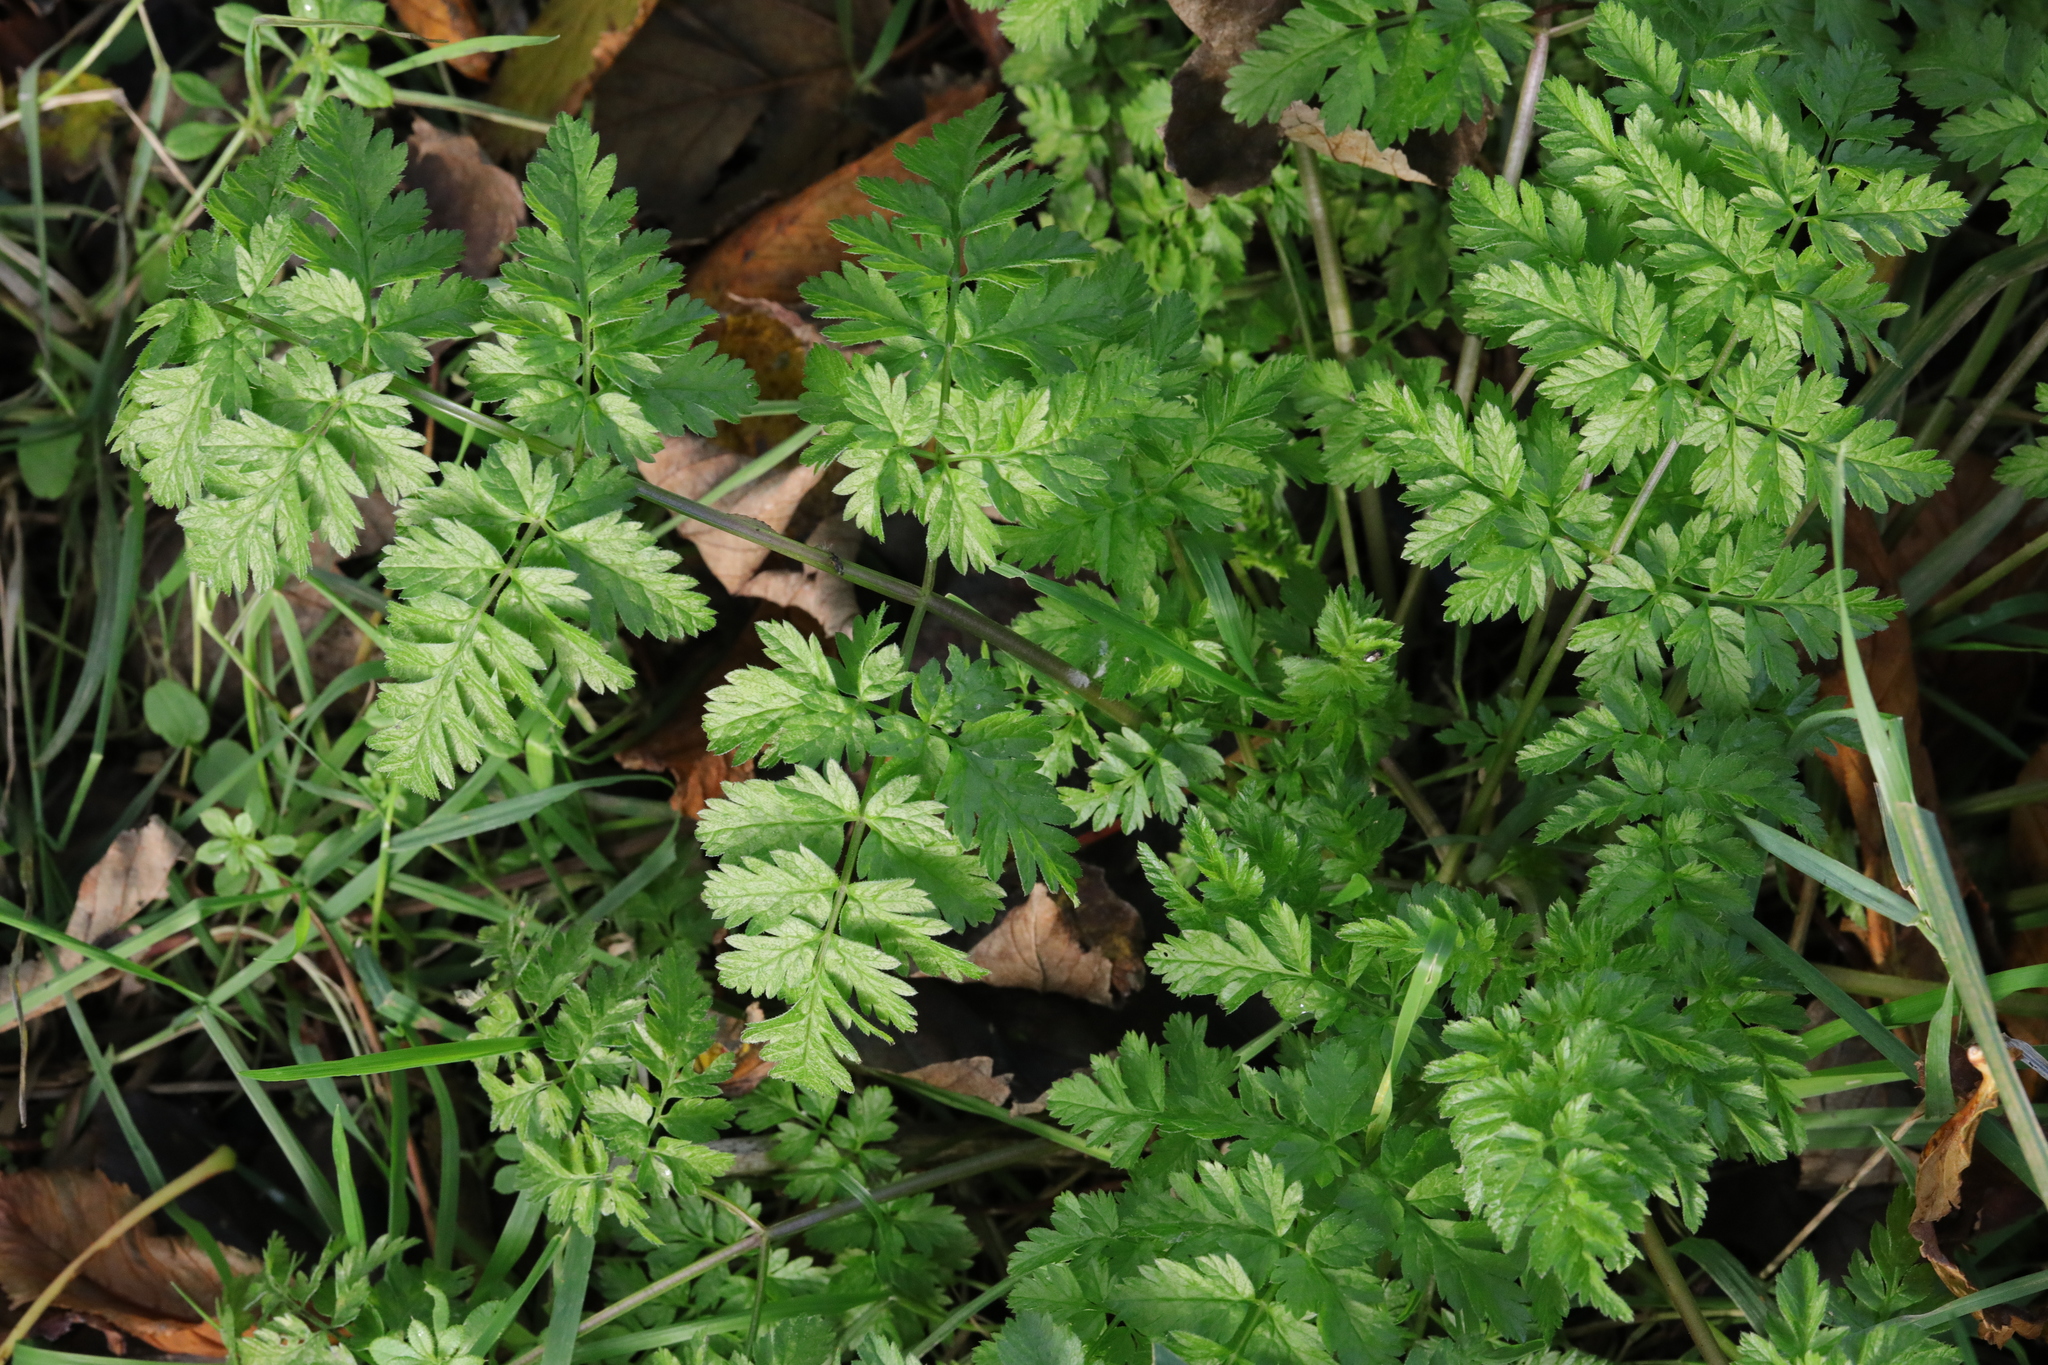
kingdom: Plantae
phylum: Tracheophyta
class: Magnoliopsida
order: Apiales
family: Apiaceae
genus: Anthriscus
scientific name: Anthriscus sylvestris
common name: Cow parsley
